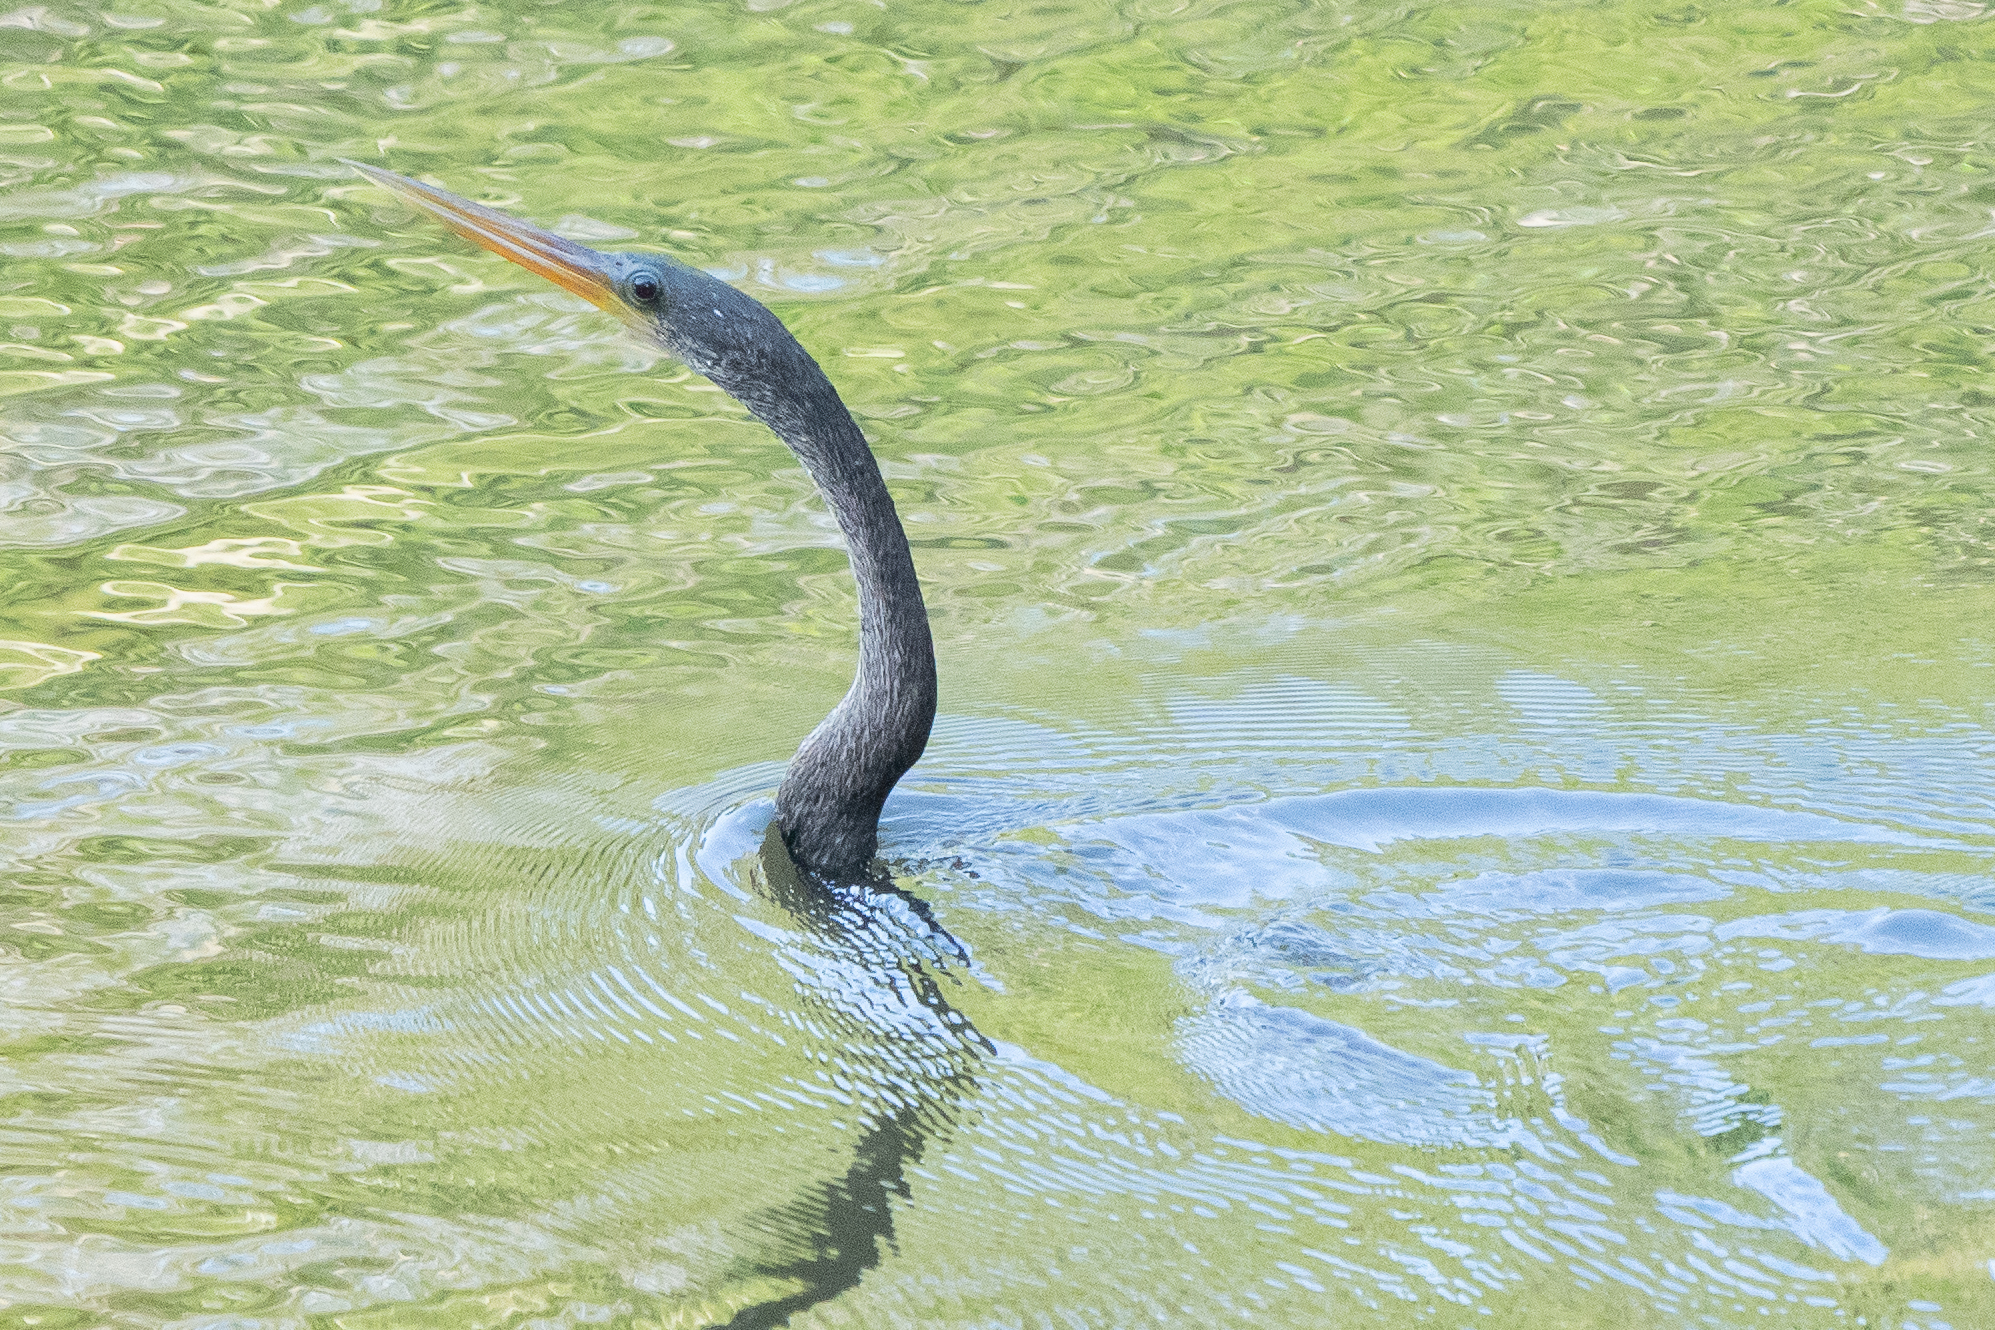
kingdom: Animalia
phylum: Chordata
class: Aves
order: Suliformes
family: Anhingidae
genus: Anhinga
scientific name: Anhinga anhinga
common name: Anhinga
